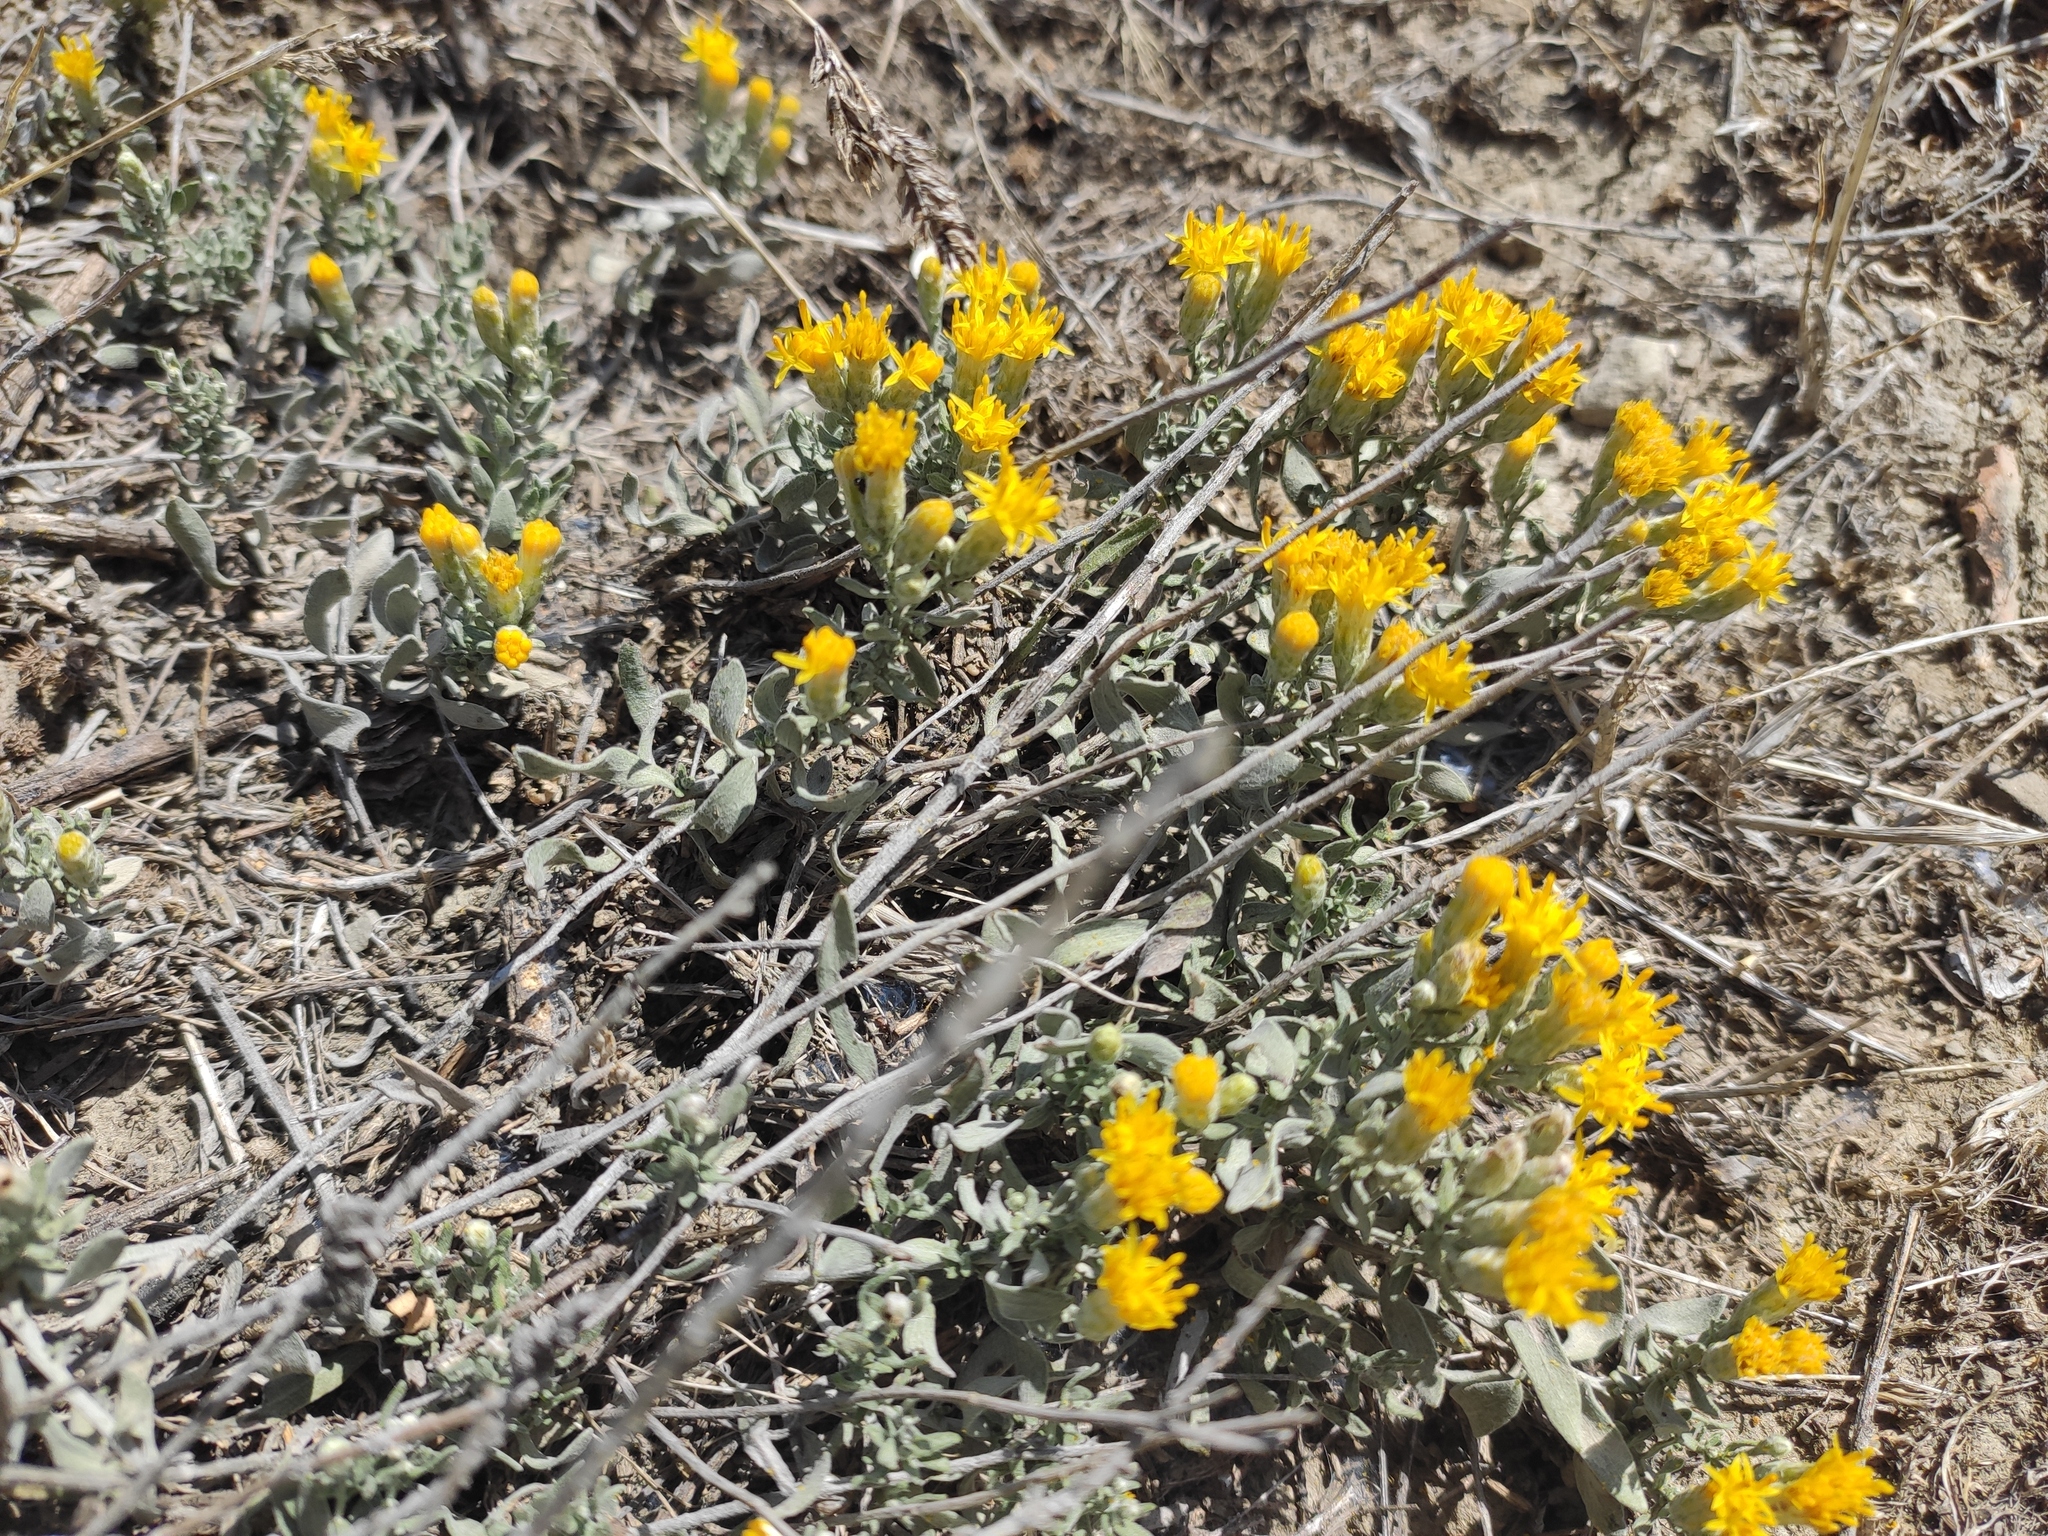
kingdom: Plantae
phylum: Tracheophyta
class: Magnoliopsida
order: Asterales
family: Asteraceae
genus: Galatella
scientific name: Galatella villosa
